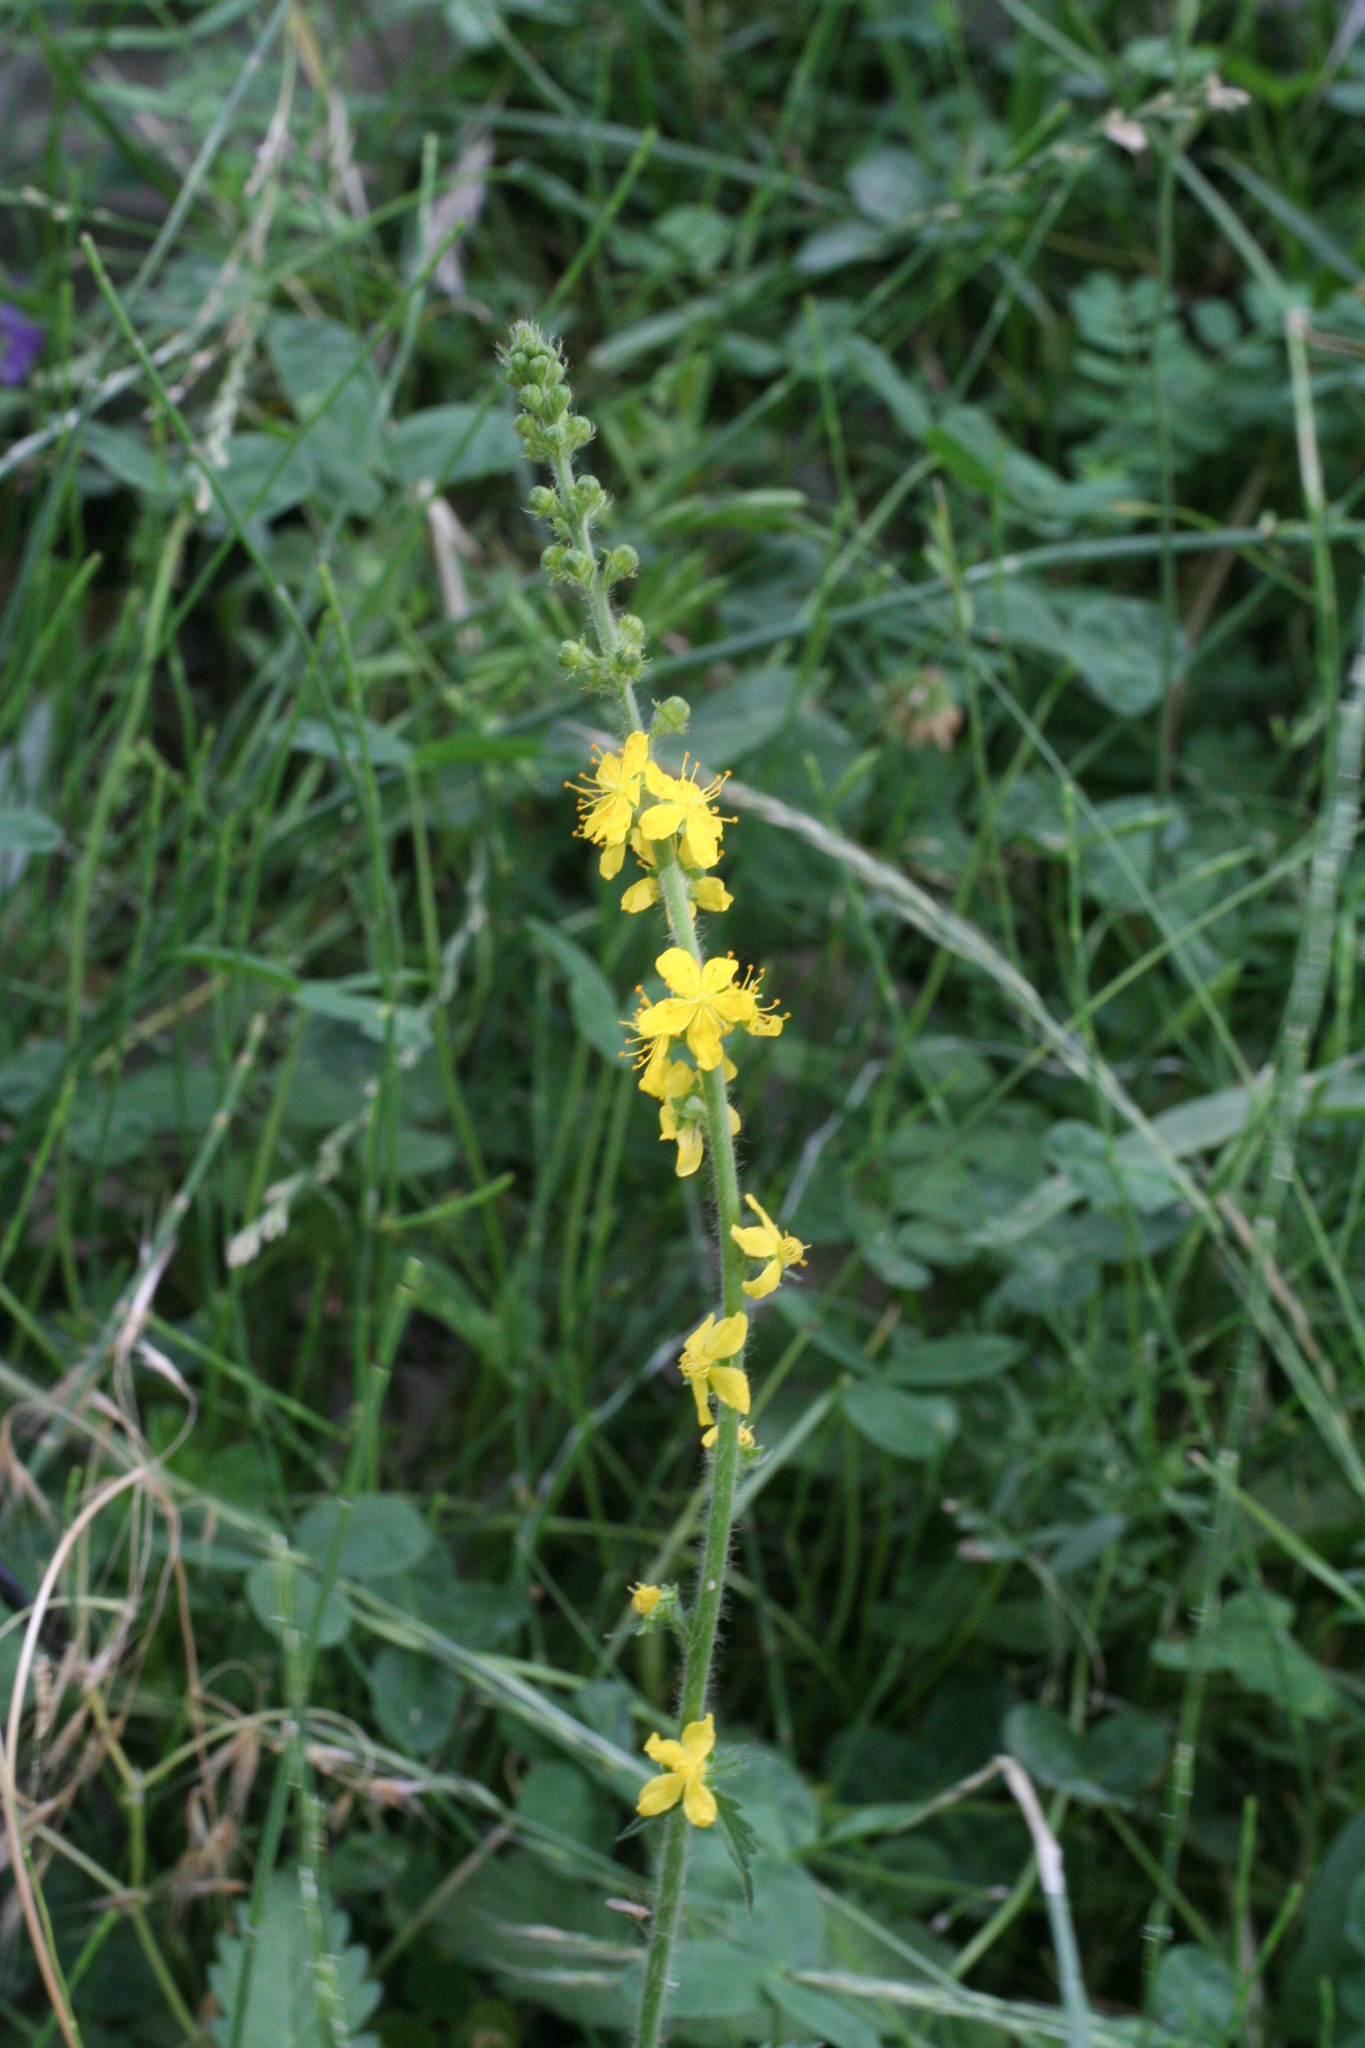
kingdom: Plantae
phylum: Tracheophyta
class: Magnoliopsida
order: Rosales
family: Rosaceae
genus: Agrimonia
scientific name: Agrimonia eupatoria
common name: Agrimony
